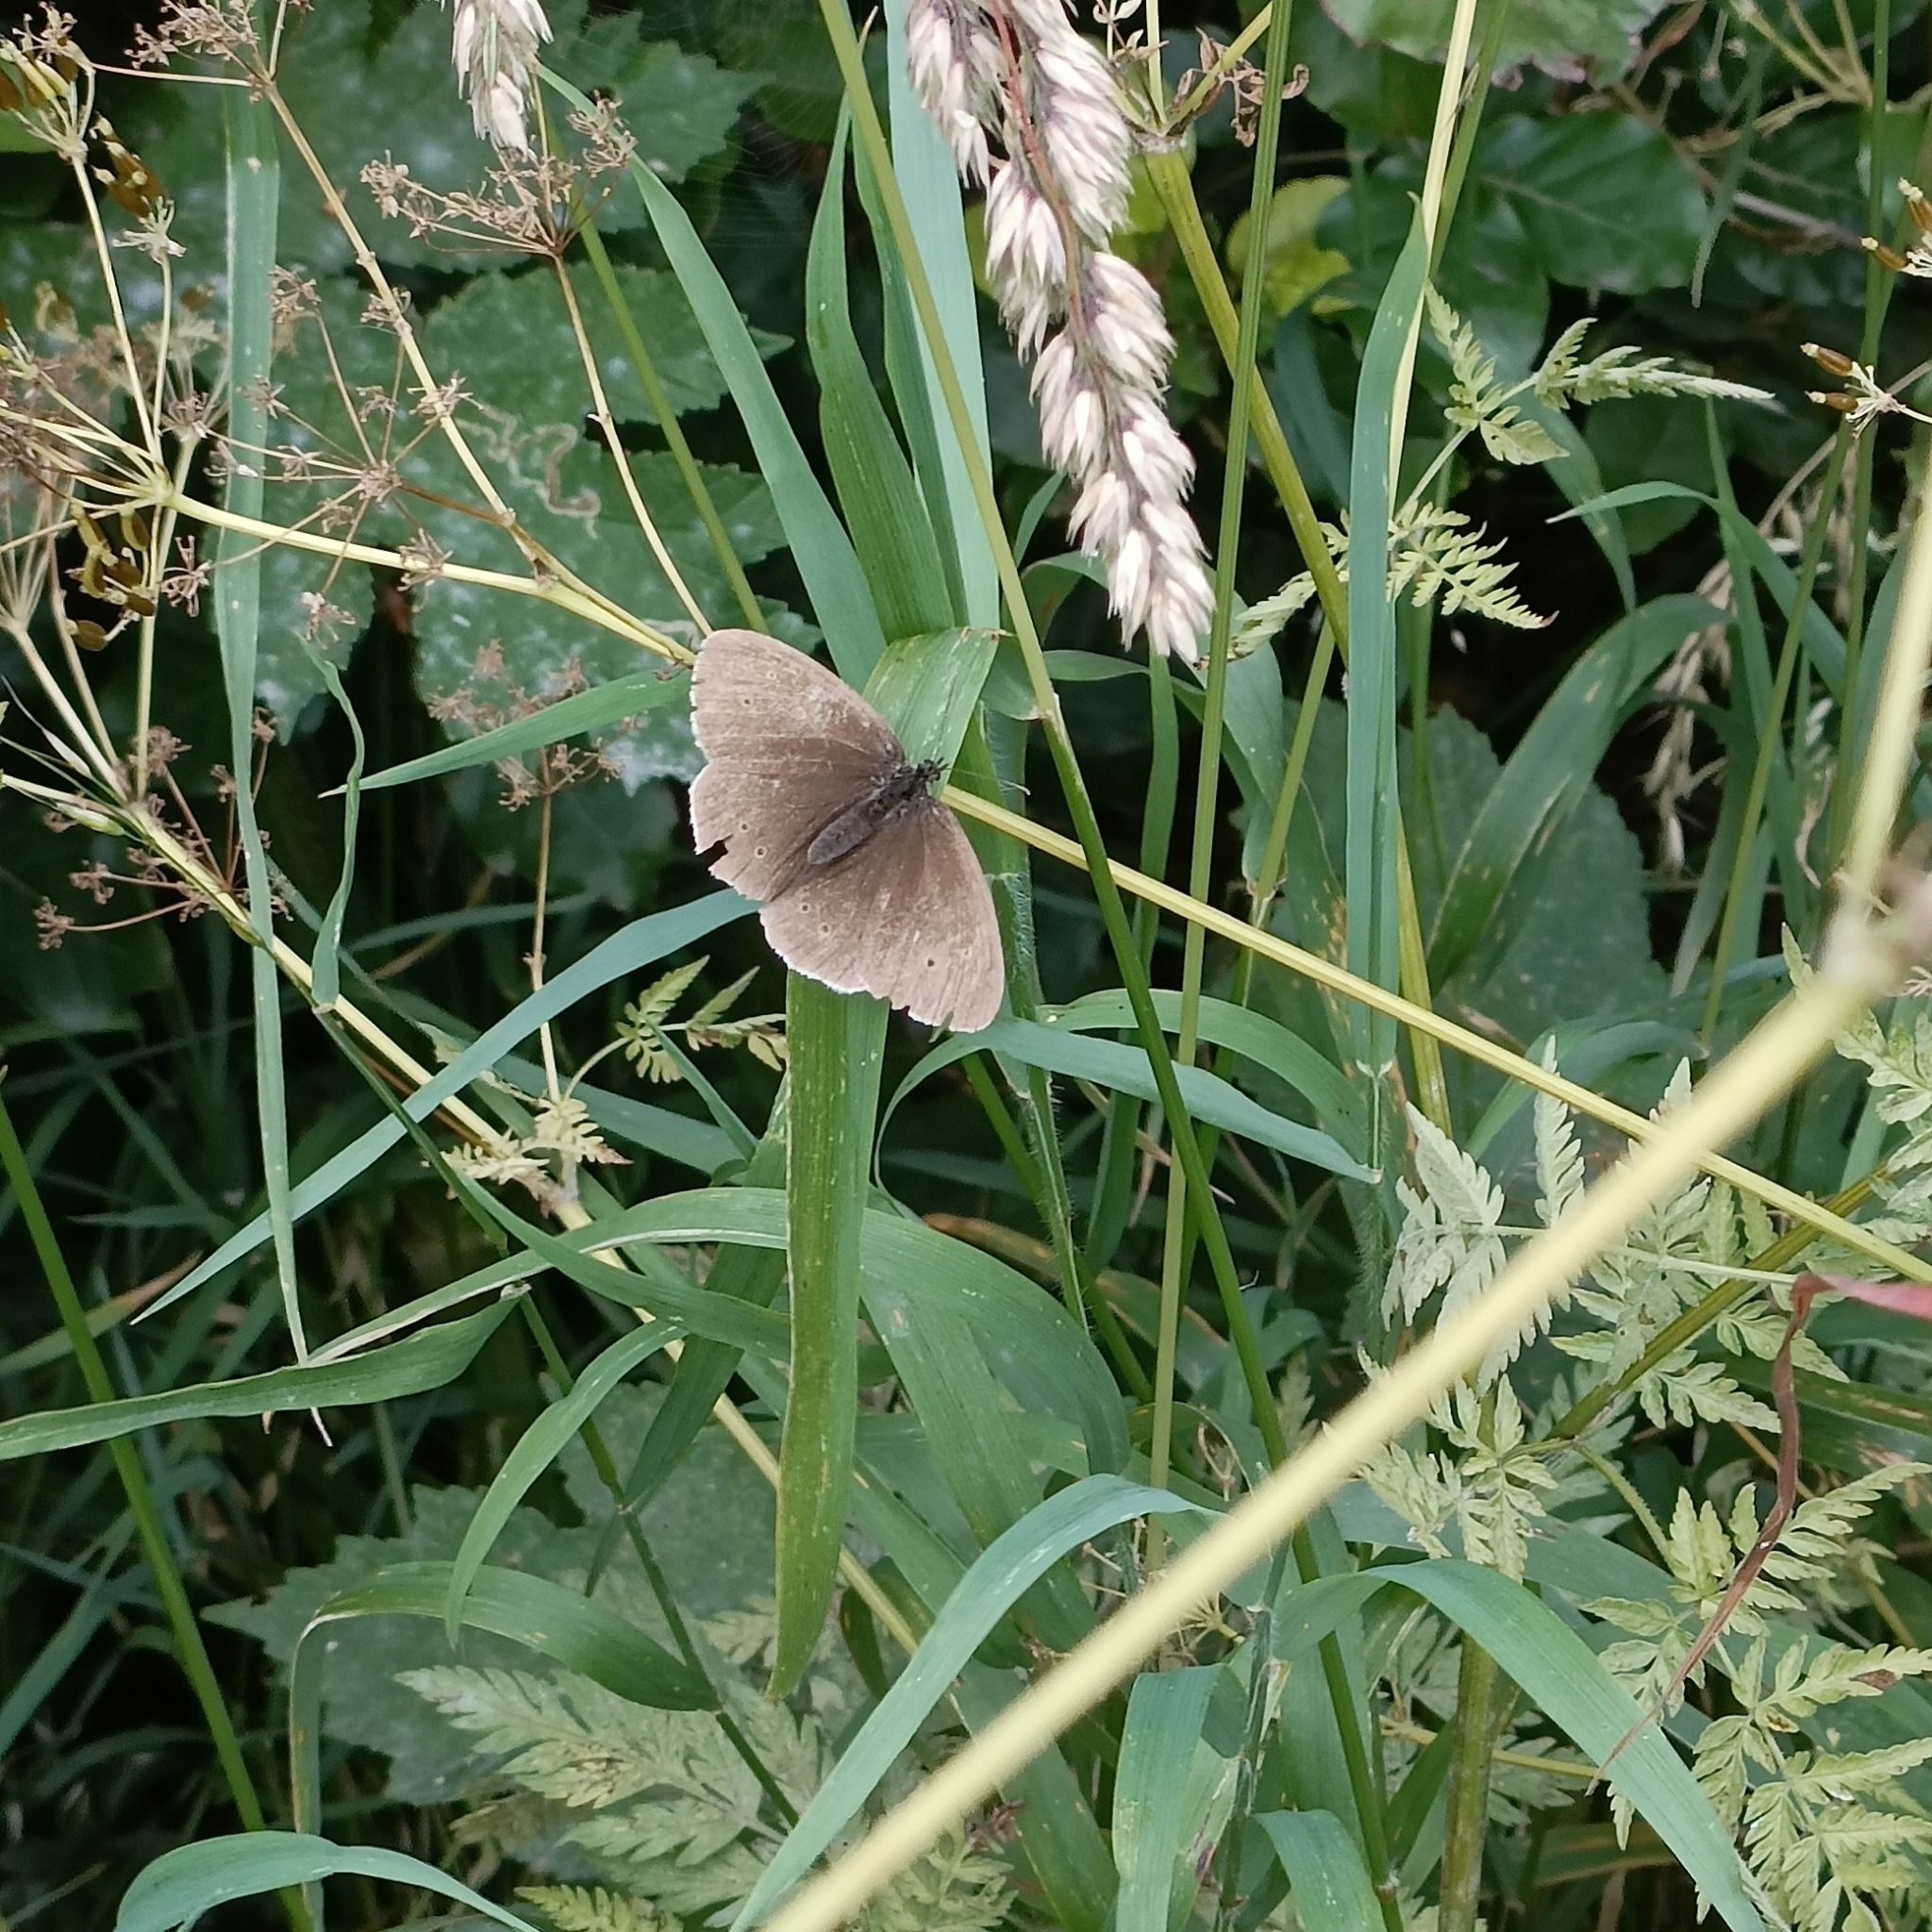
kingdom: Animalia
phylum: Arthropoda
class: Insecta
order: Lepidoptera
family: Nymphalidae
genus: Aphantopus
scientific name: Aphantopus hyperantus
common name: Ringlet
